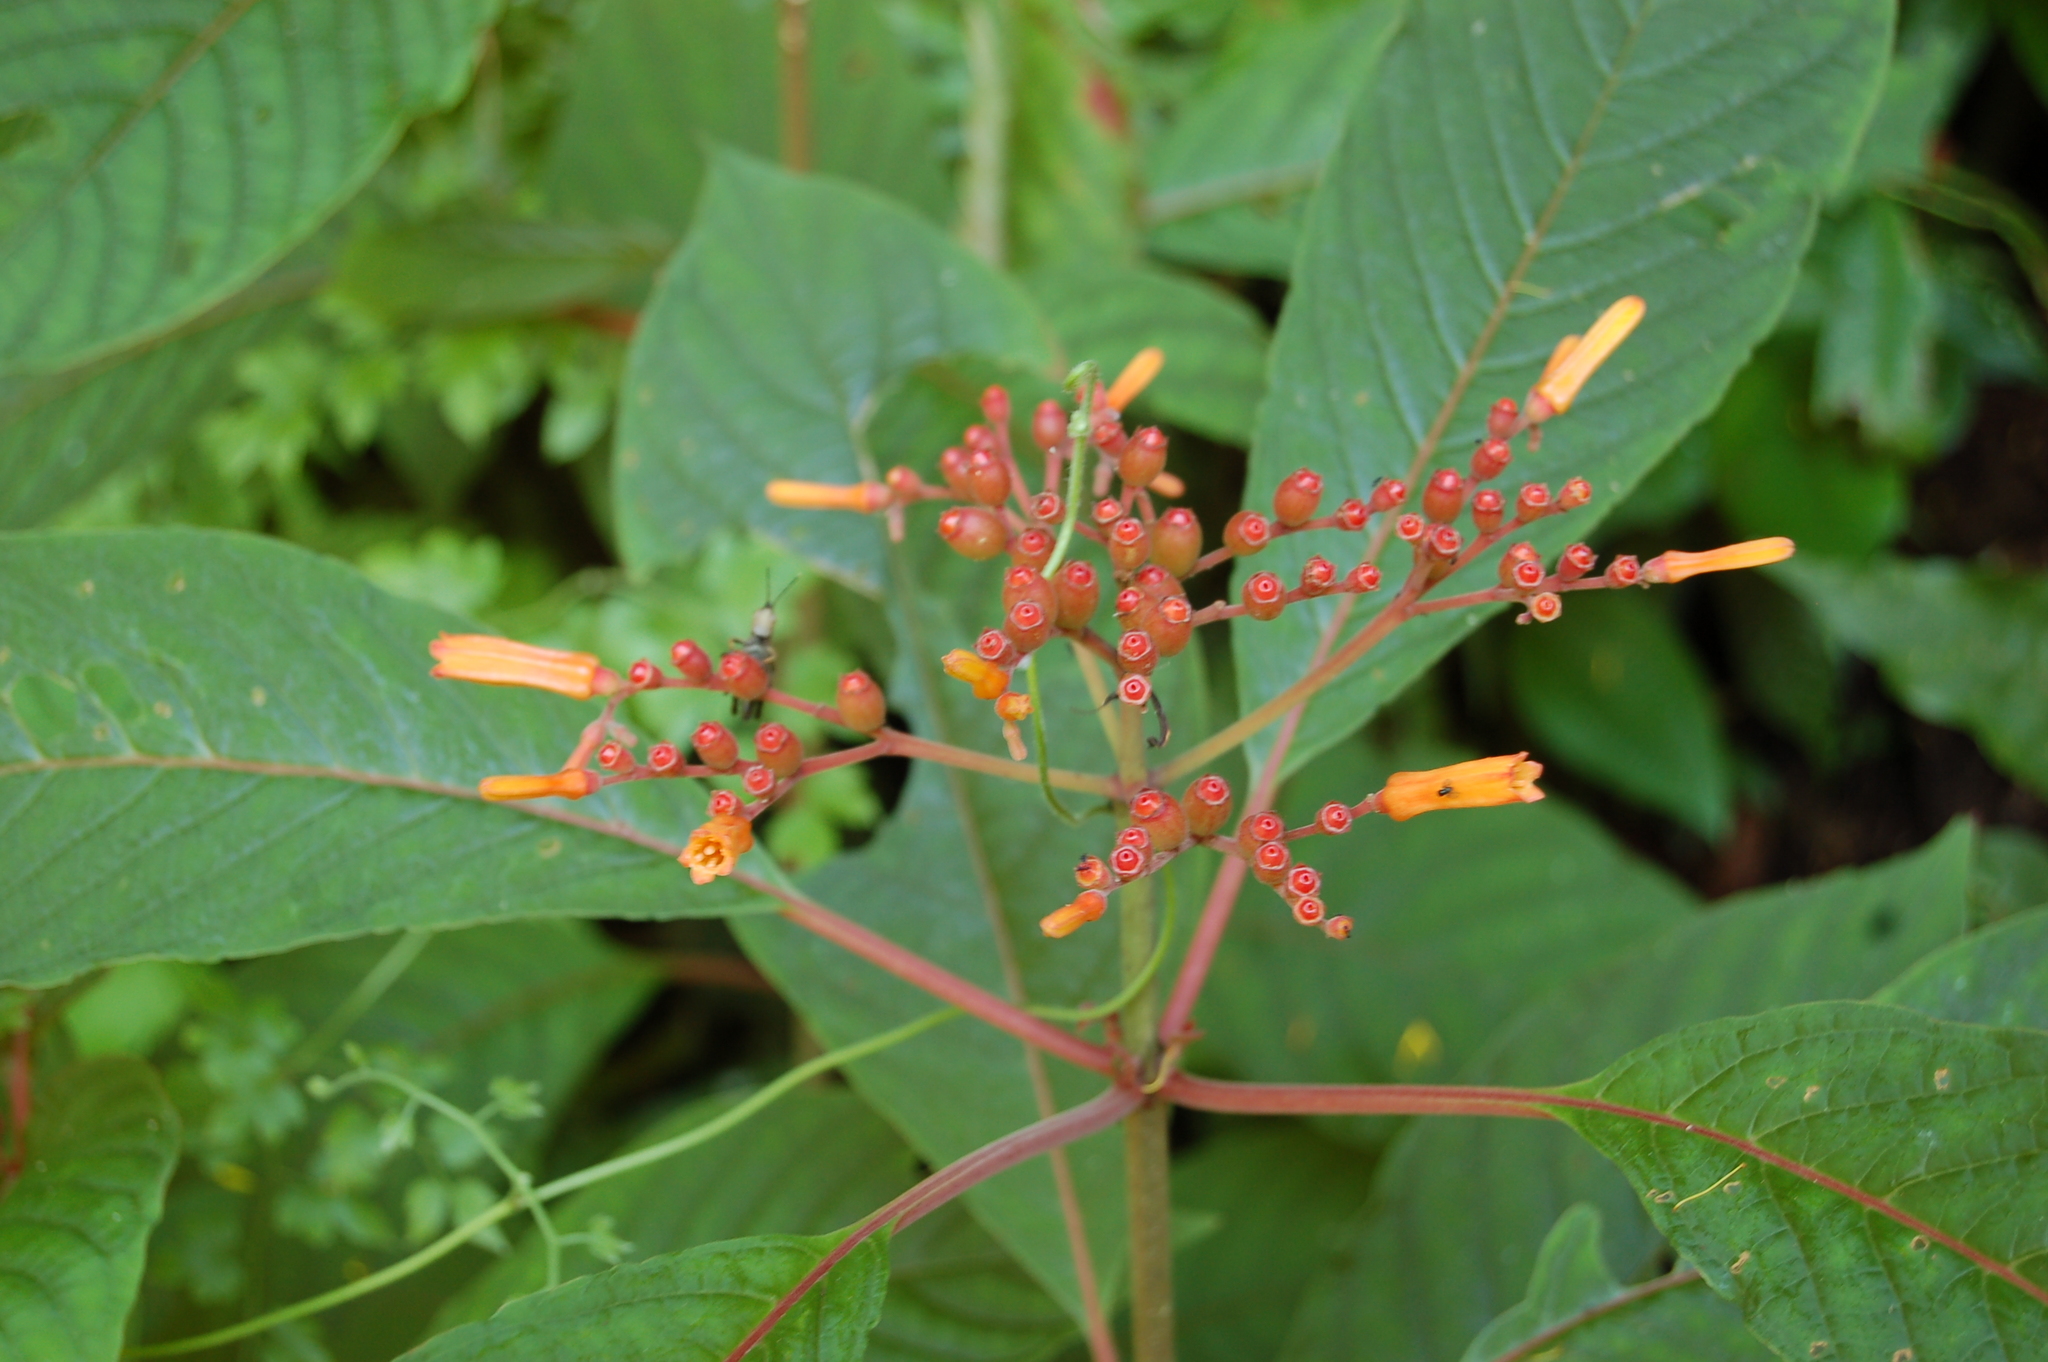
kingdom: Plantae
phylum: Tracheophyta
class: Magnoliopsida
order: Gentianales
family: Rubiaceae
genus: Hamelia
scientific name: Hamelia patens
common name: Redhead
